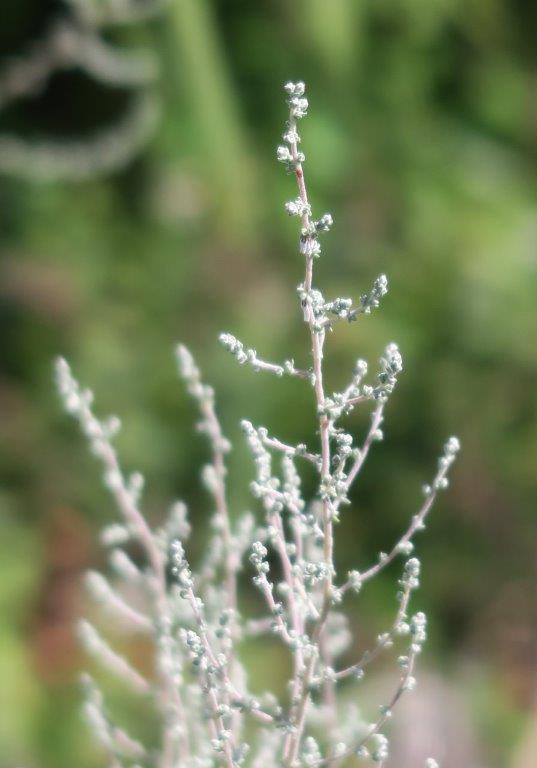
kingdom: Plantae
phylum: Tracheophyta
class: Magnoliopsida
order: Asterales
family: Asteraceae
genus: Seriphium
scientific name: Seriphium plumosum
